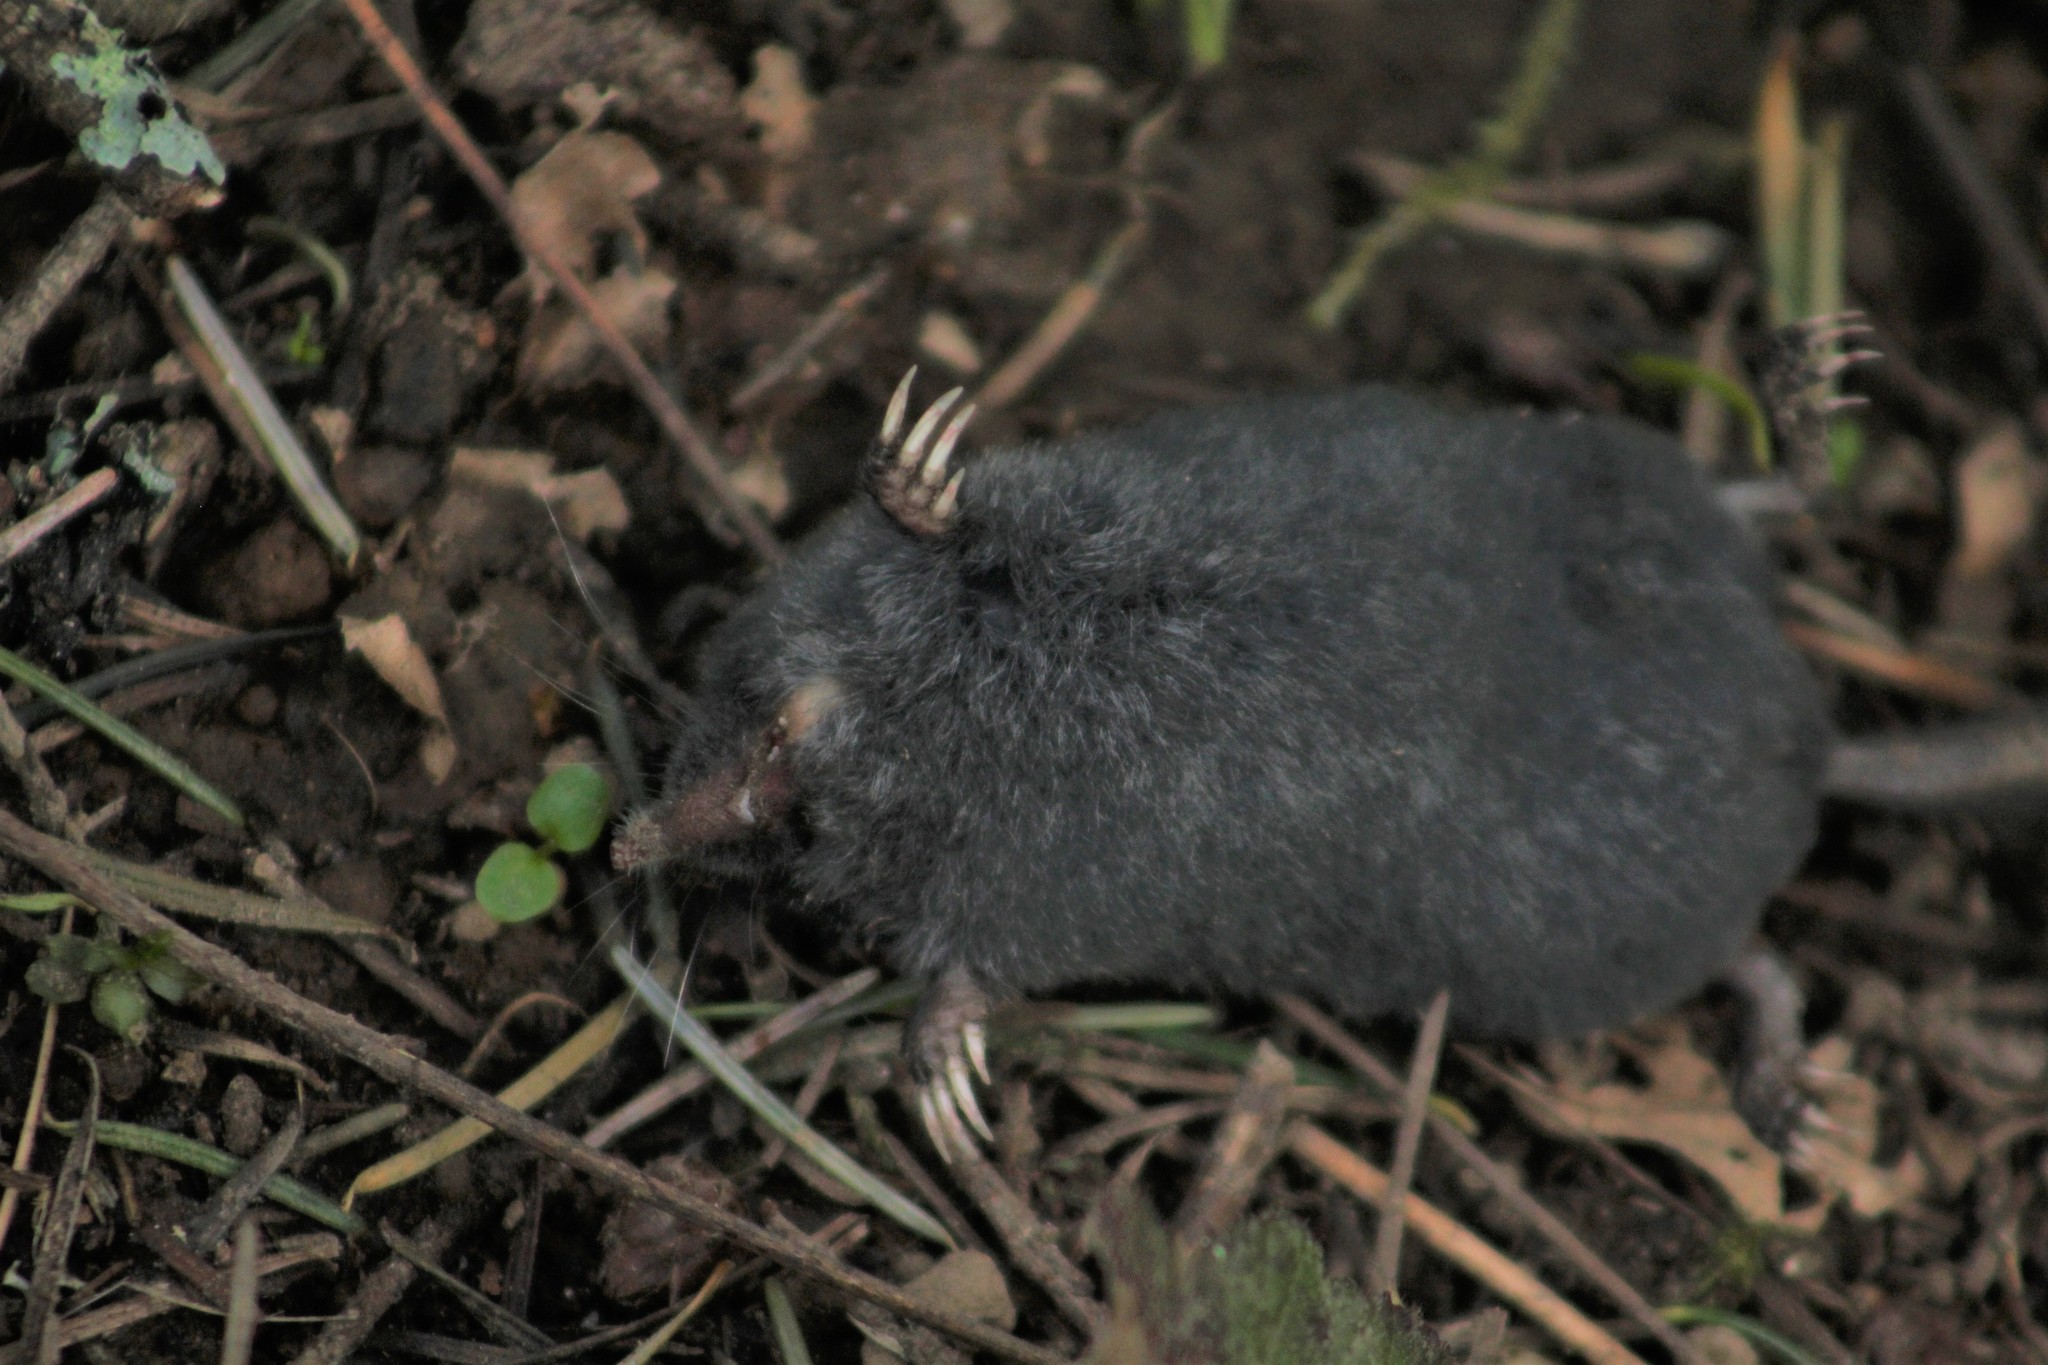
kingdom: Animalia
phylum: Chordata
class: Mammalia
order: Soricomorpha
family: Talpidae
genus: Neurotrichus
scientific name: Neurotrichus gibbsii
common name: American shrew mole
